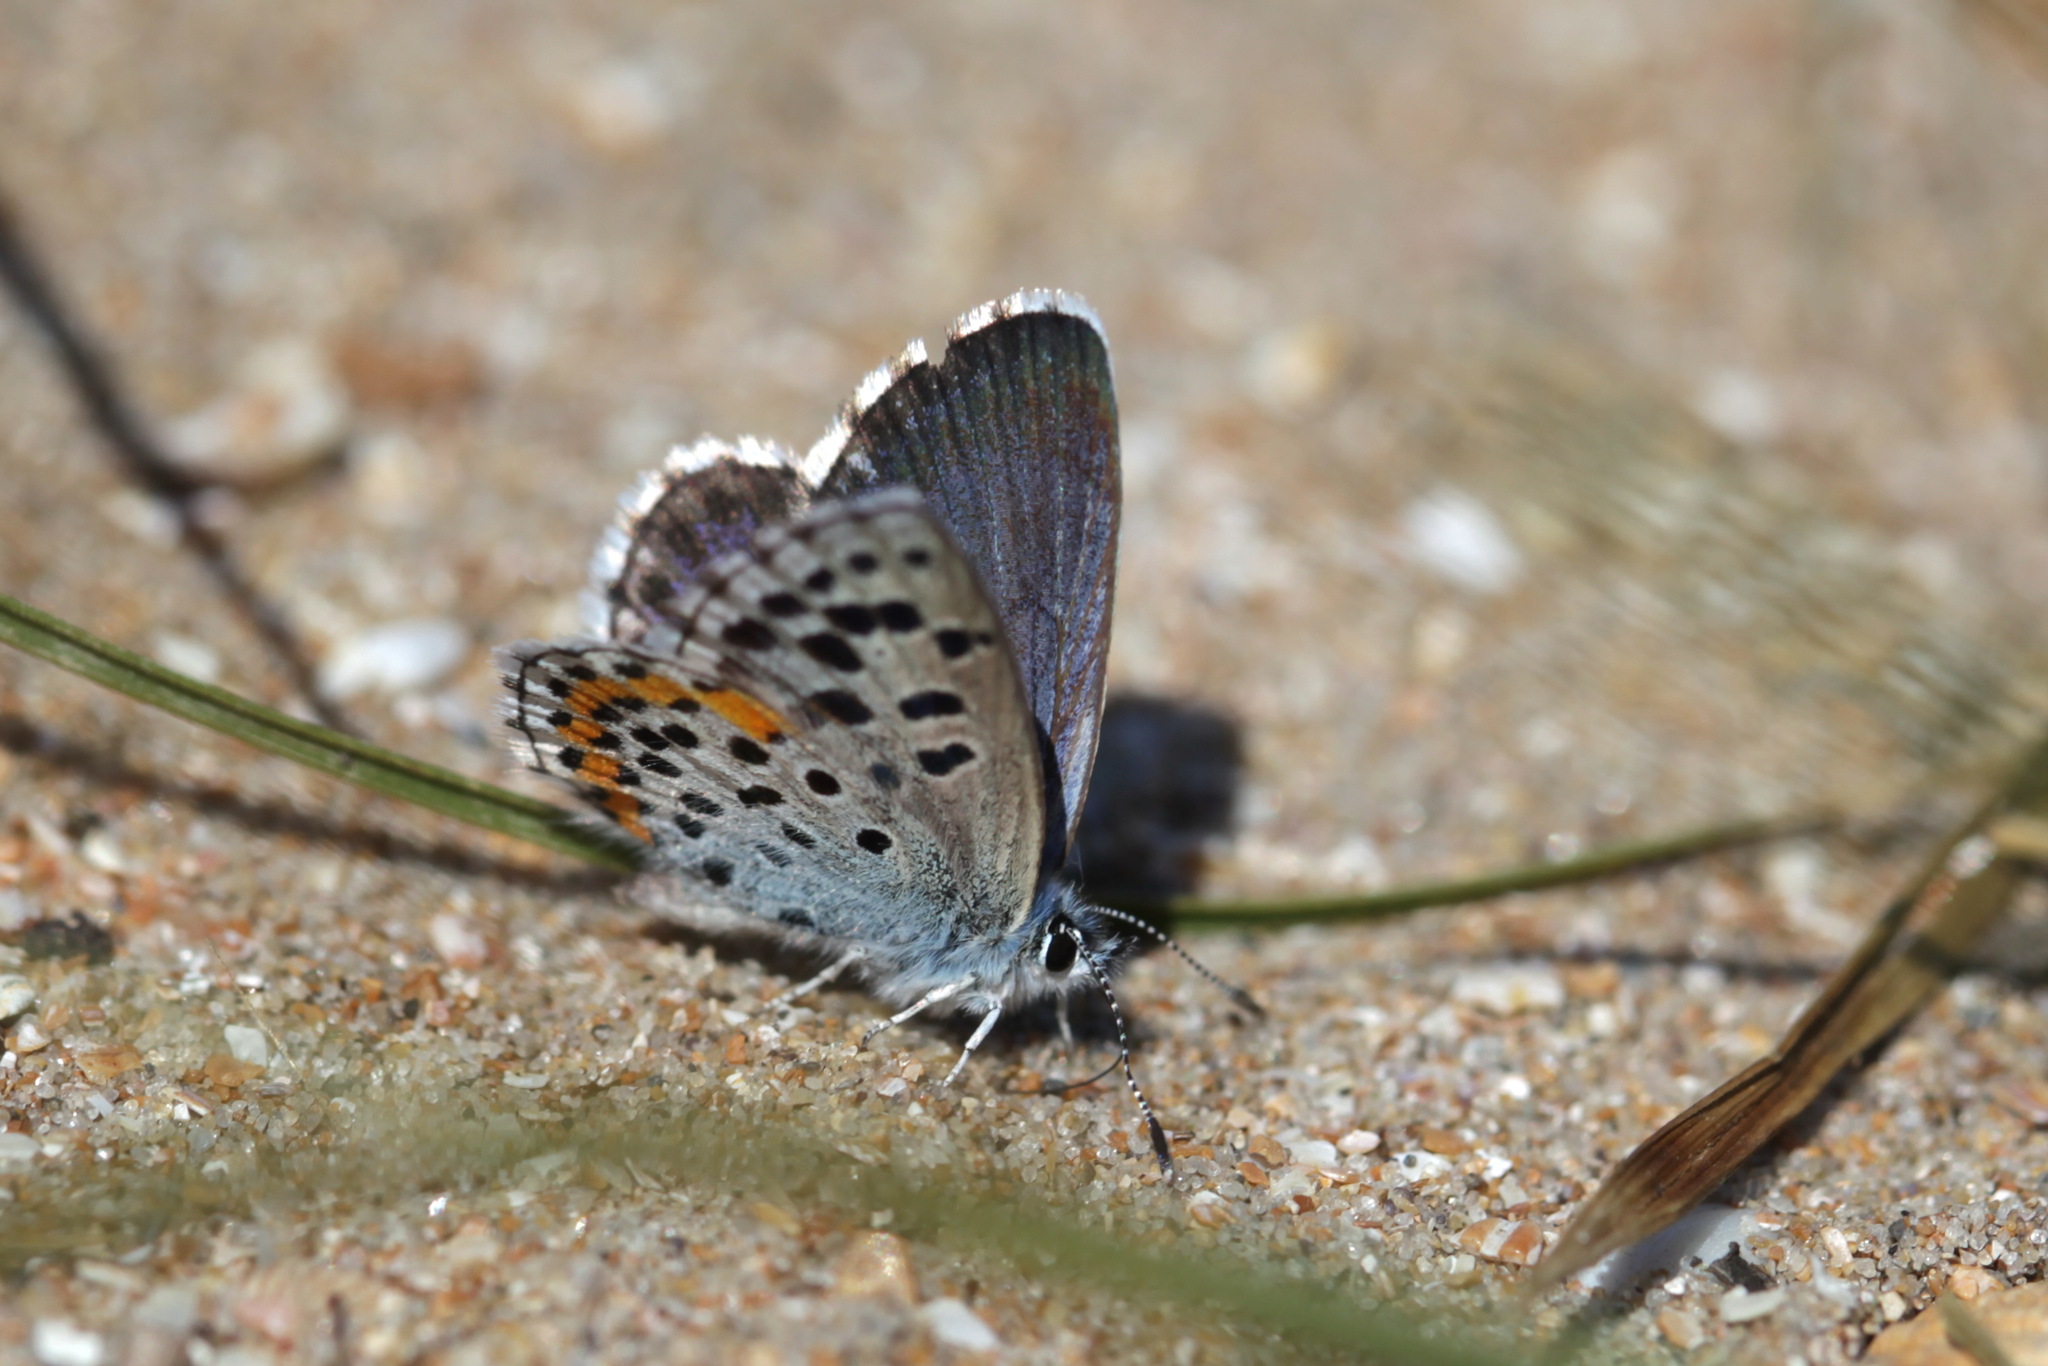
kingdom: Animalia
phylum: Arthropoda
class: Insecta
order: Lepidoptera
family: Lycaenidae
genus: Pseudophilotes
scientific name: Pseudophilotes bavius
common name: Bavius blue
